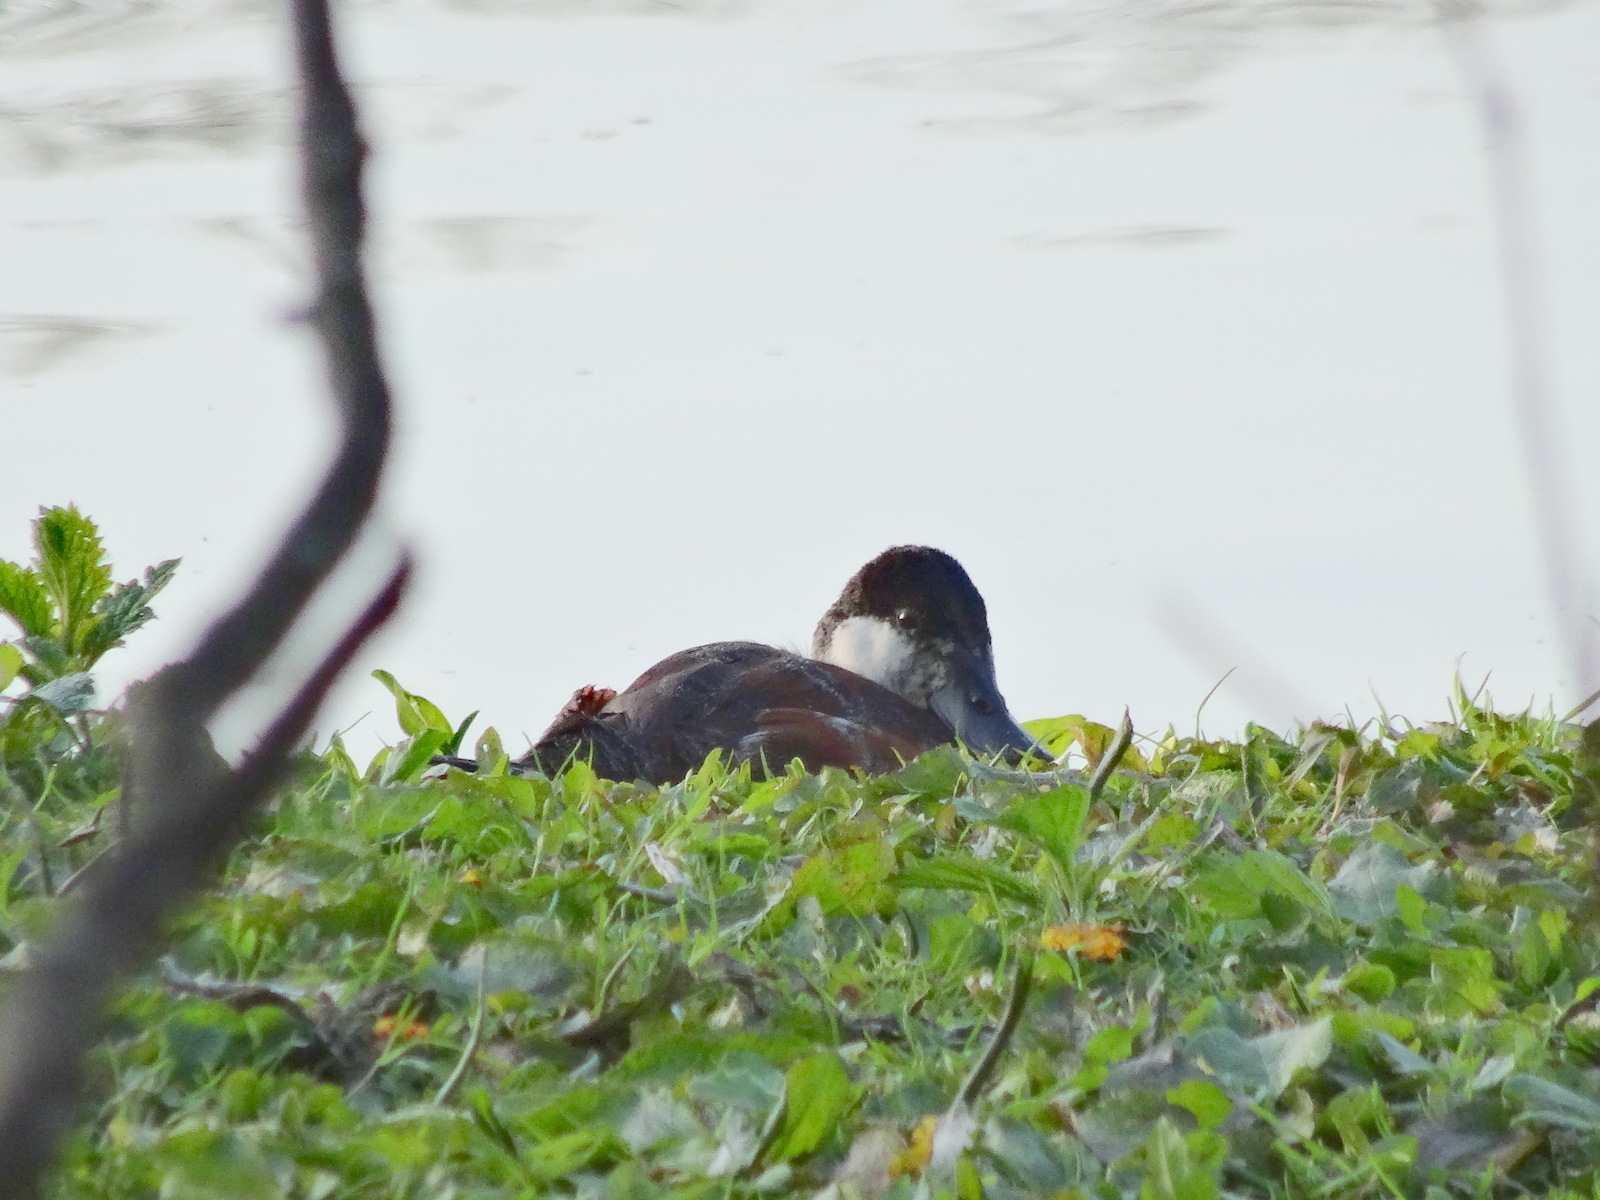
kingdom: Animalia
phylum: Chordata
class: Aves
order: Anseriformes
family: Anatidae
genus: Oxyura
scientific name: Oxyura jamaicensis
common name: Ruddy duck
